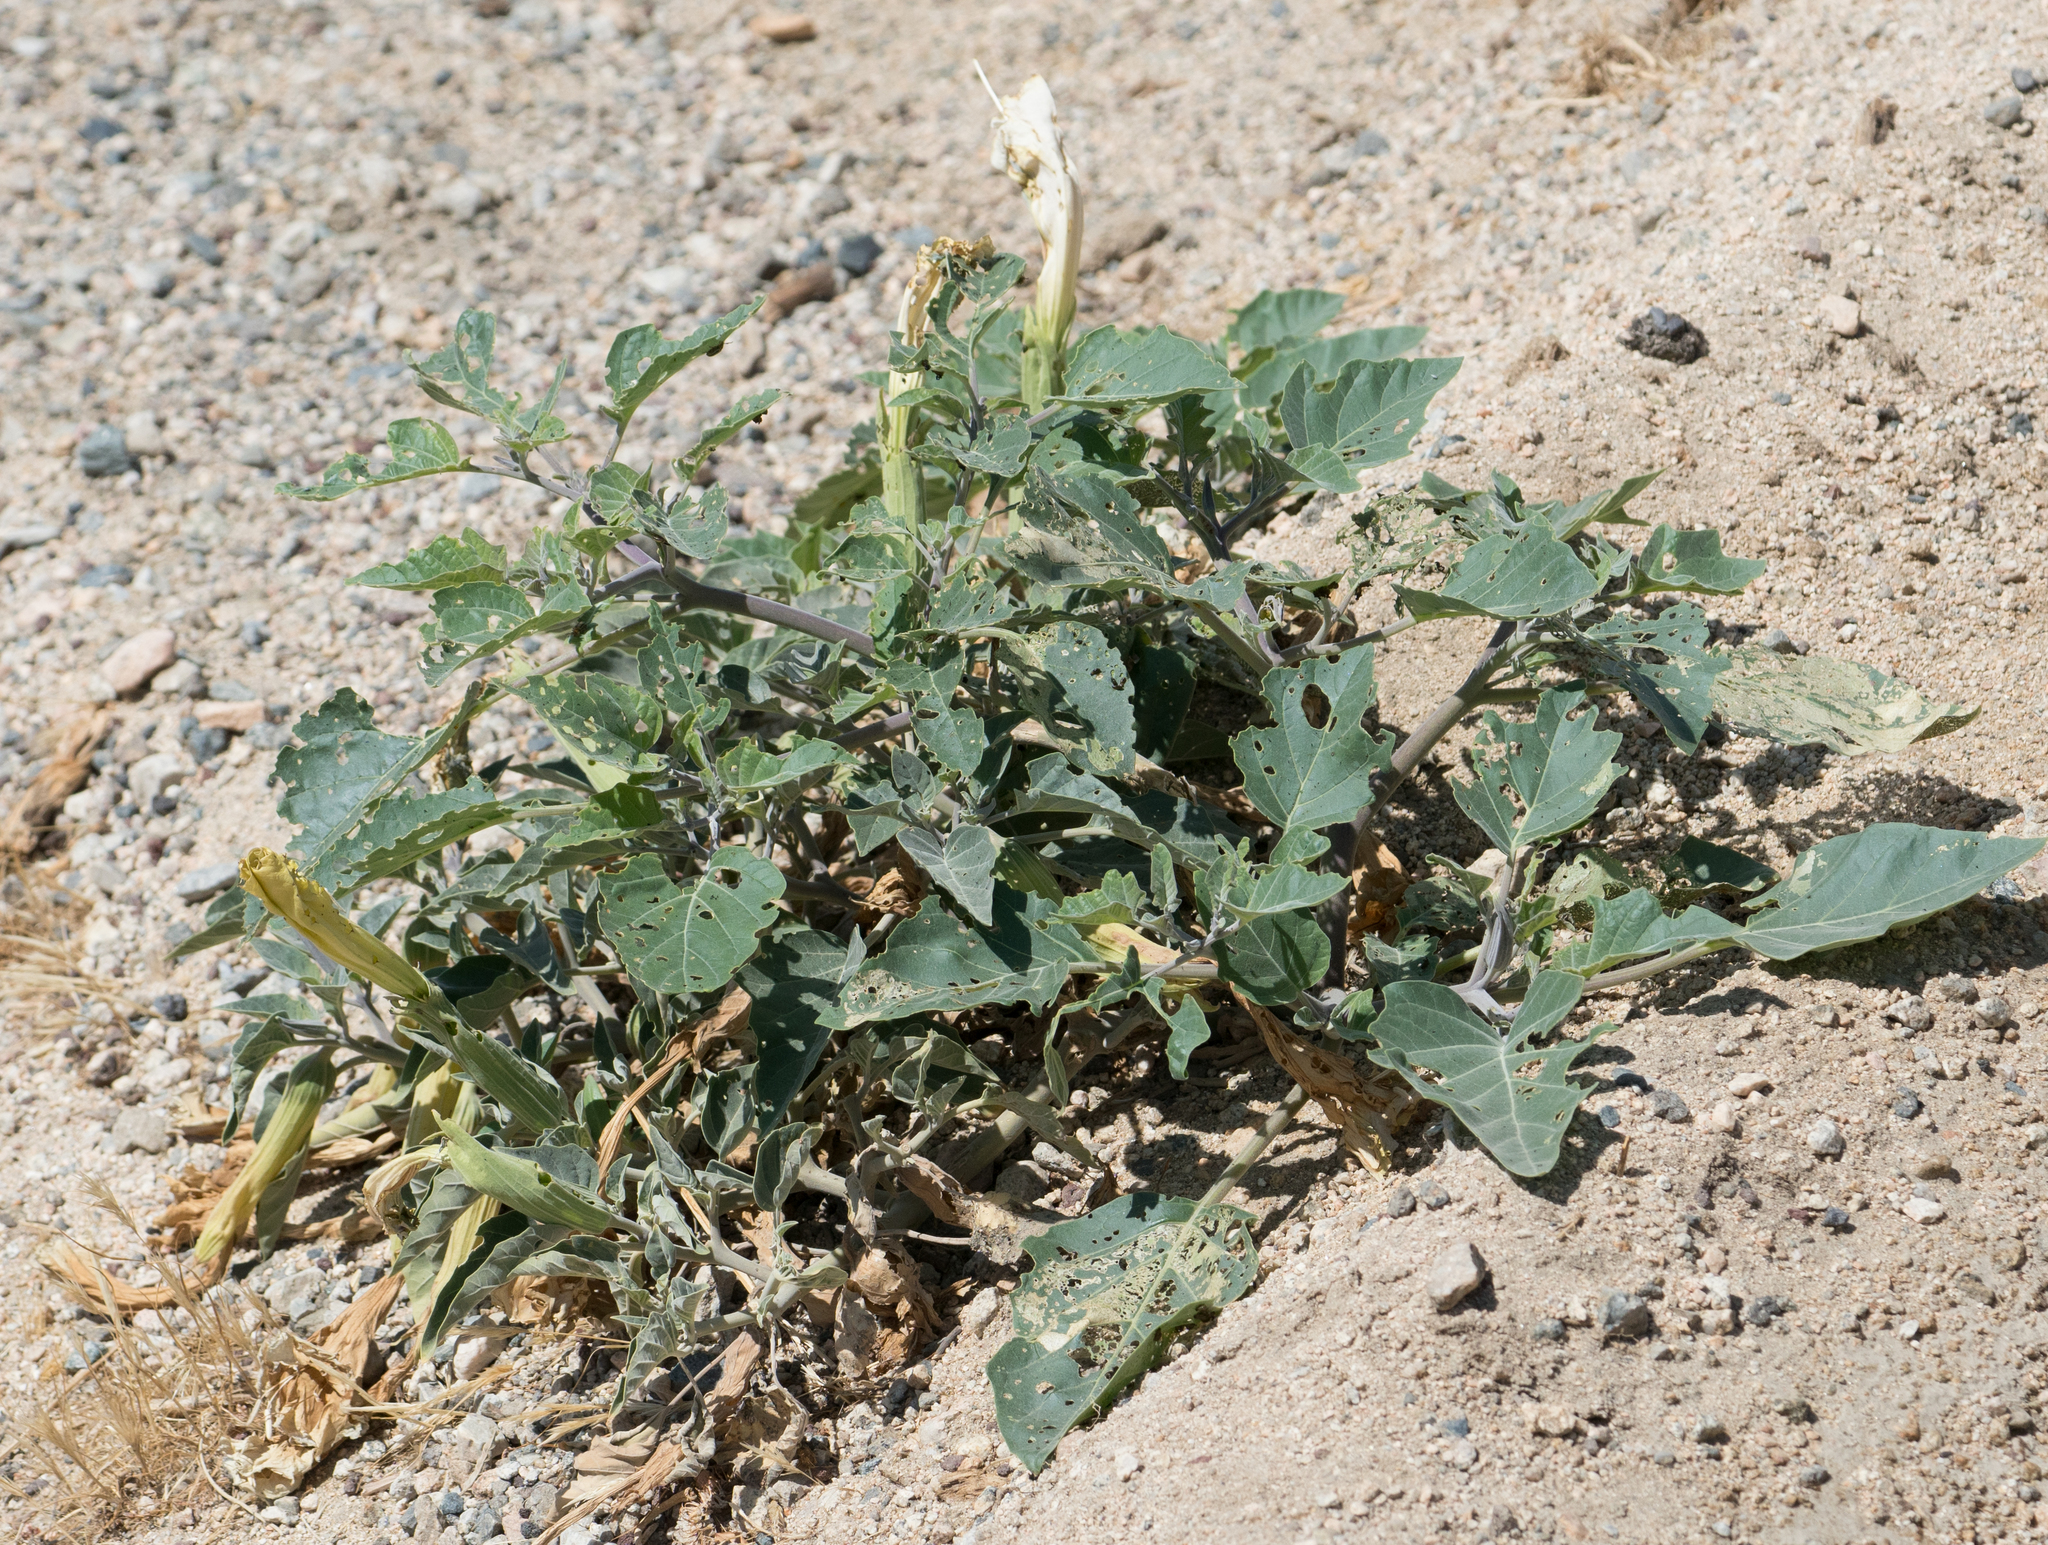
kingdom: Plantae
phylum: Tracheophyta
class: Magnoliopsida
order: Solanales
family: Solanaceae
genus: Datura
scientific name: Datura wrightii
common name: Sacred thorn-apple
